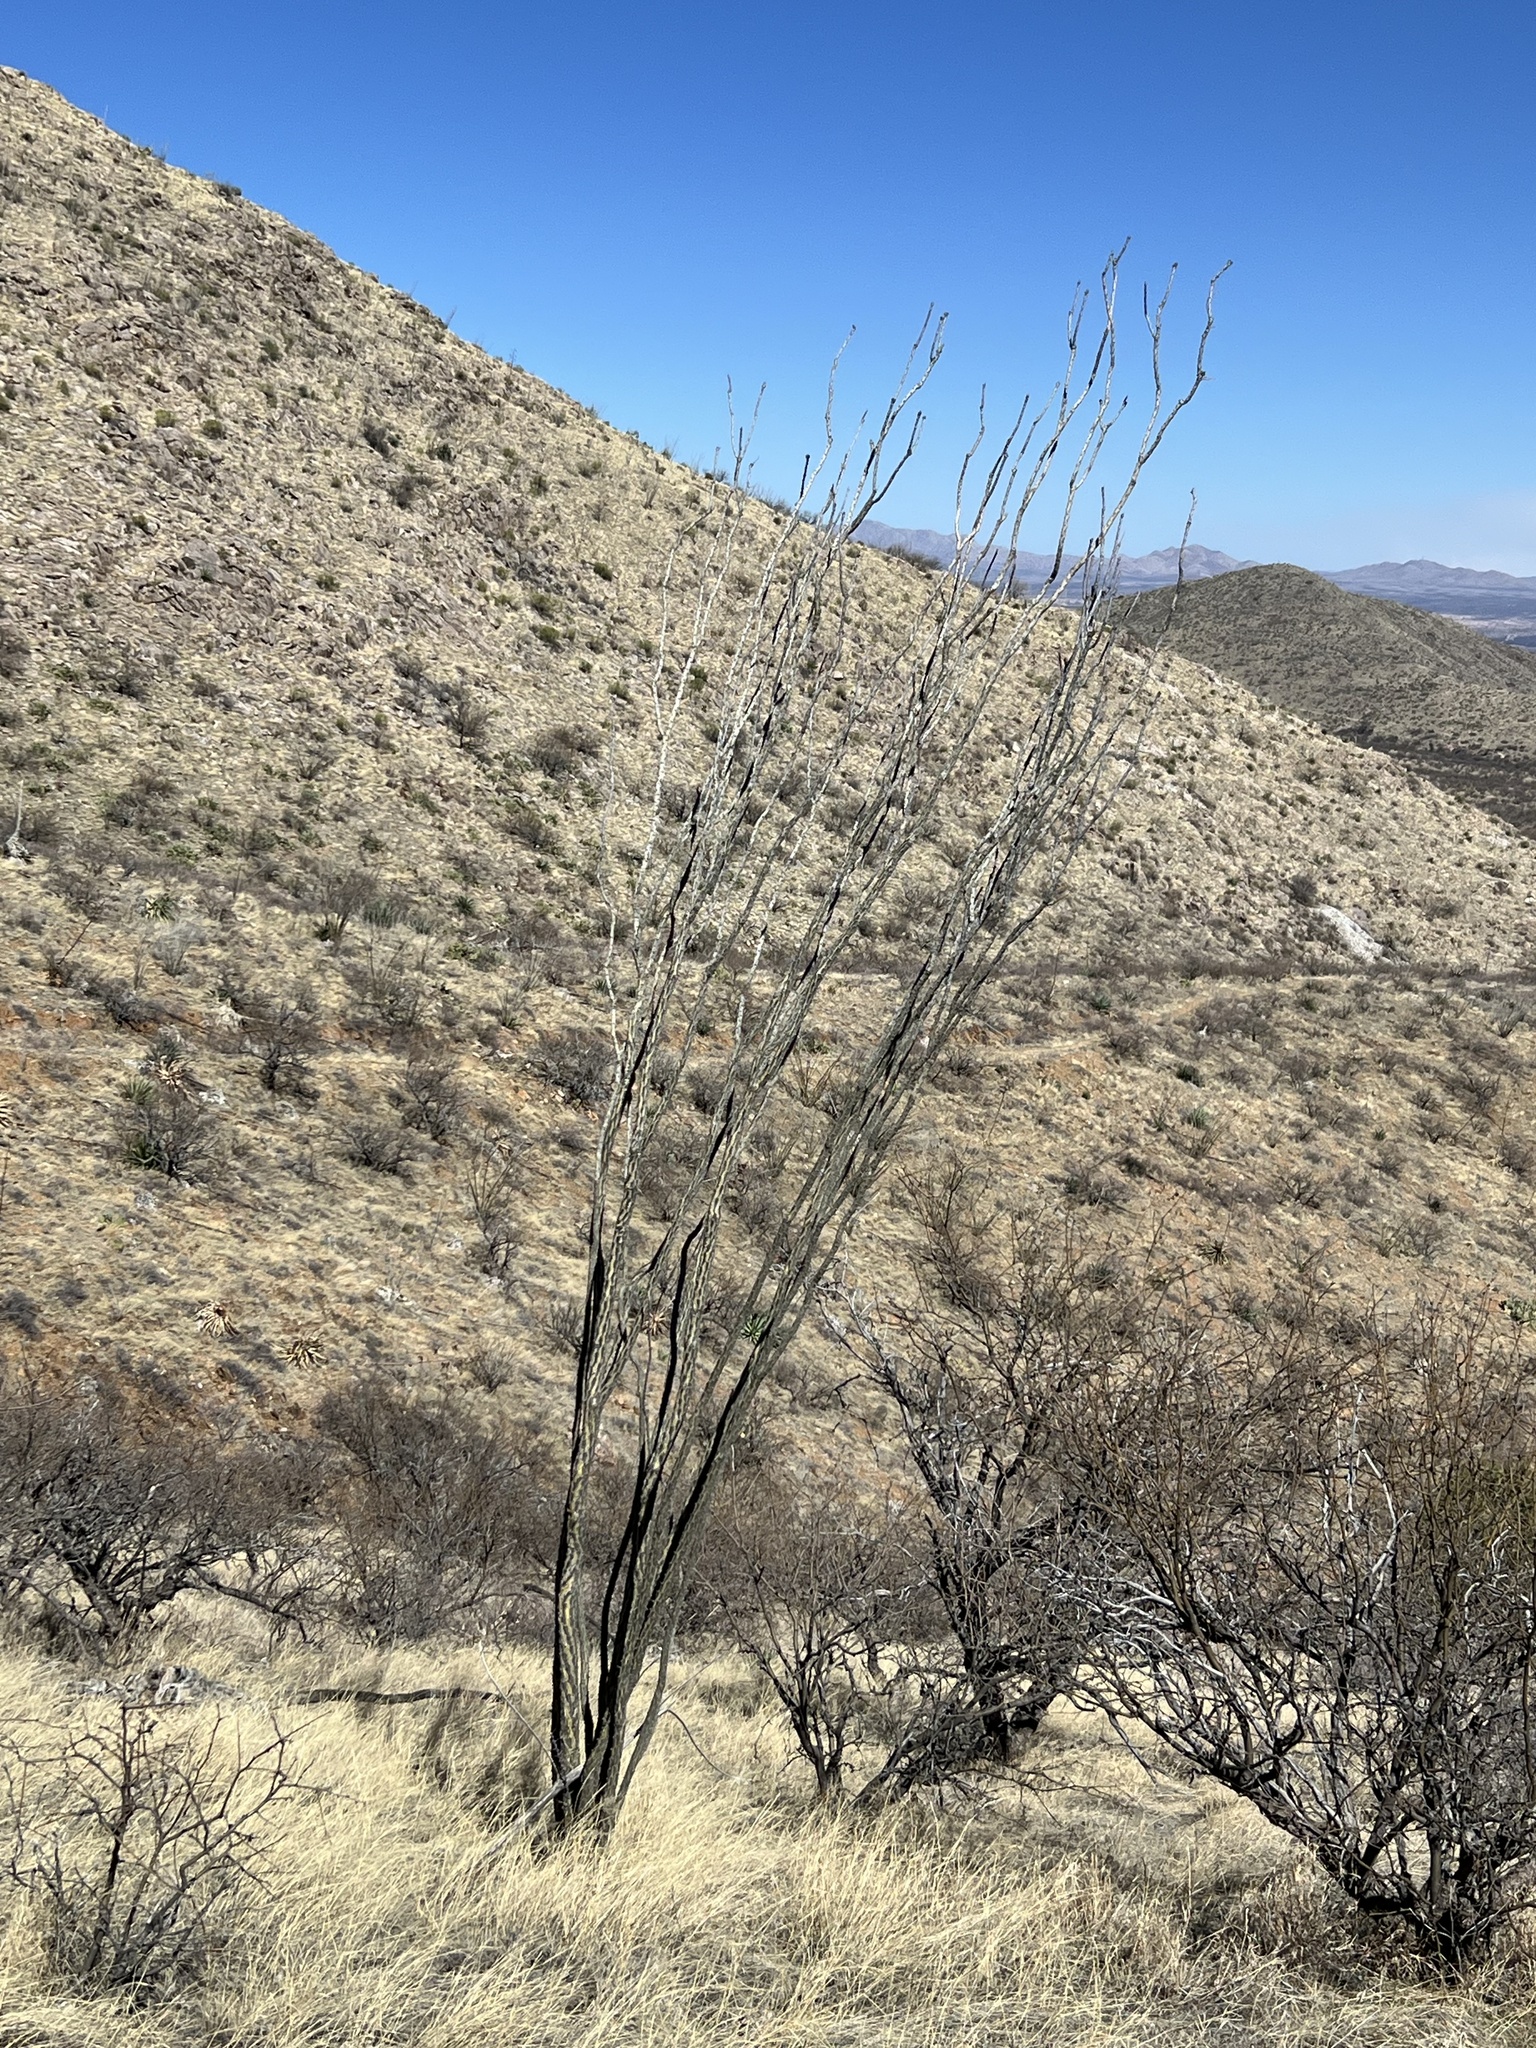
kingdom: Plantae
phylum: Tracheophyta
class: Magnoliopsida
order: Ericales
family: Fouquieriaceae
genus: Fouquieria
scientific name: Fouquieria splendens
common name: Vine-cactus
